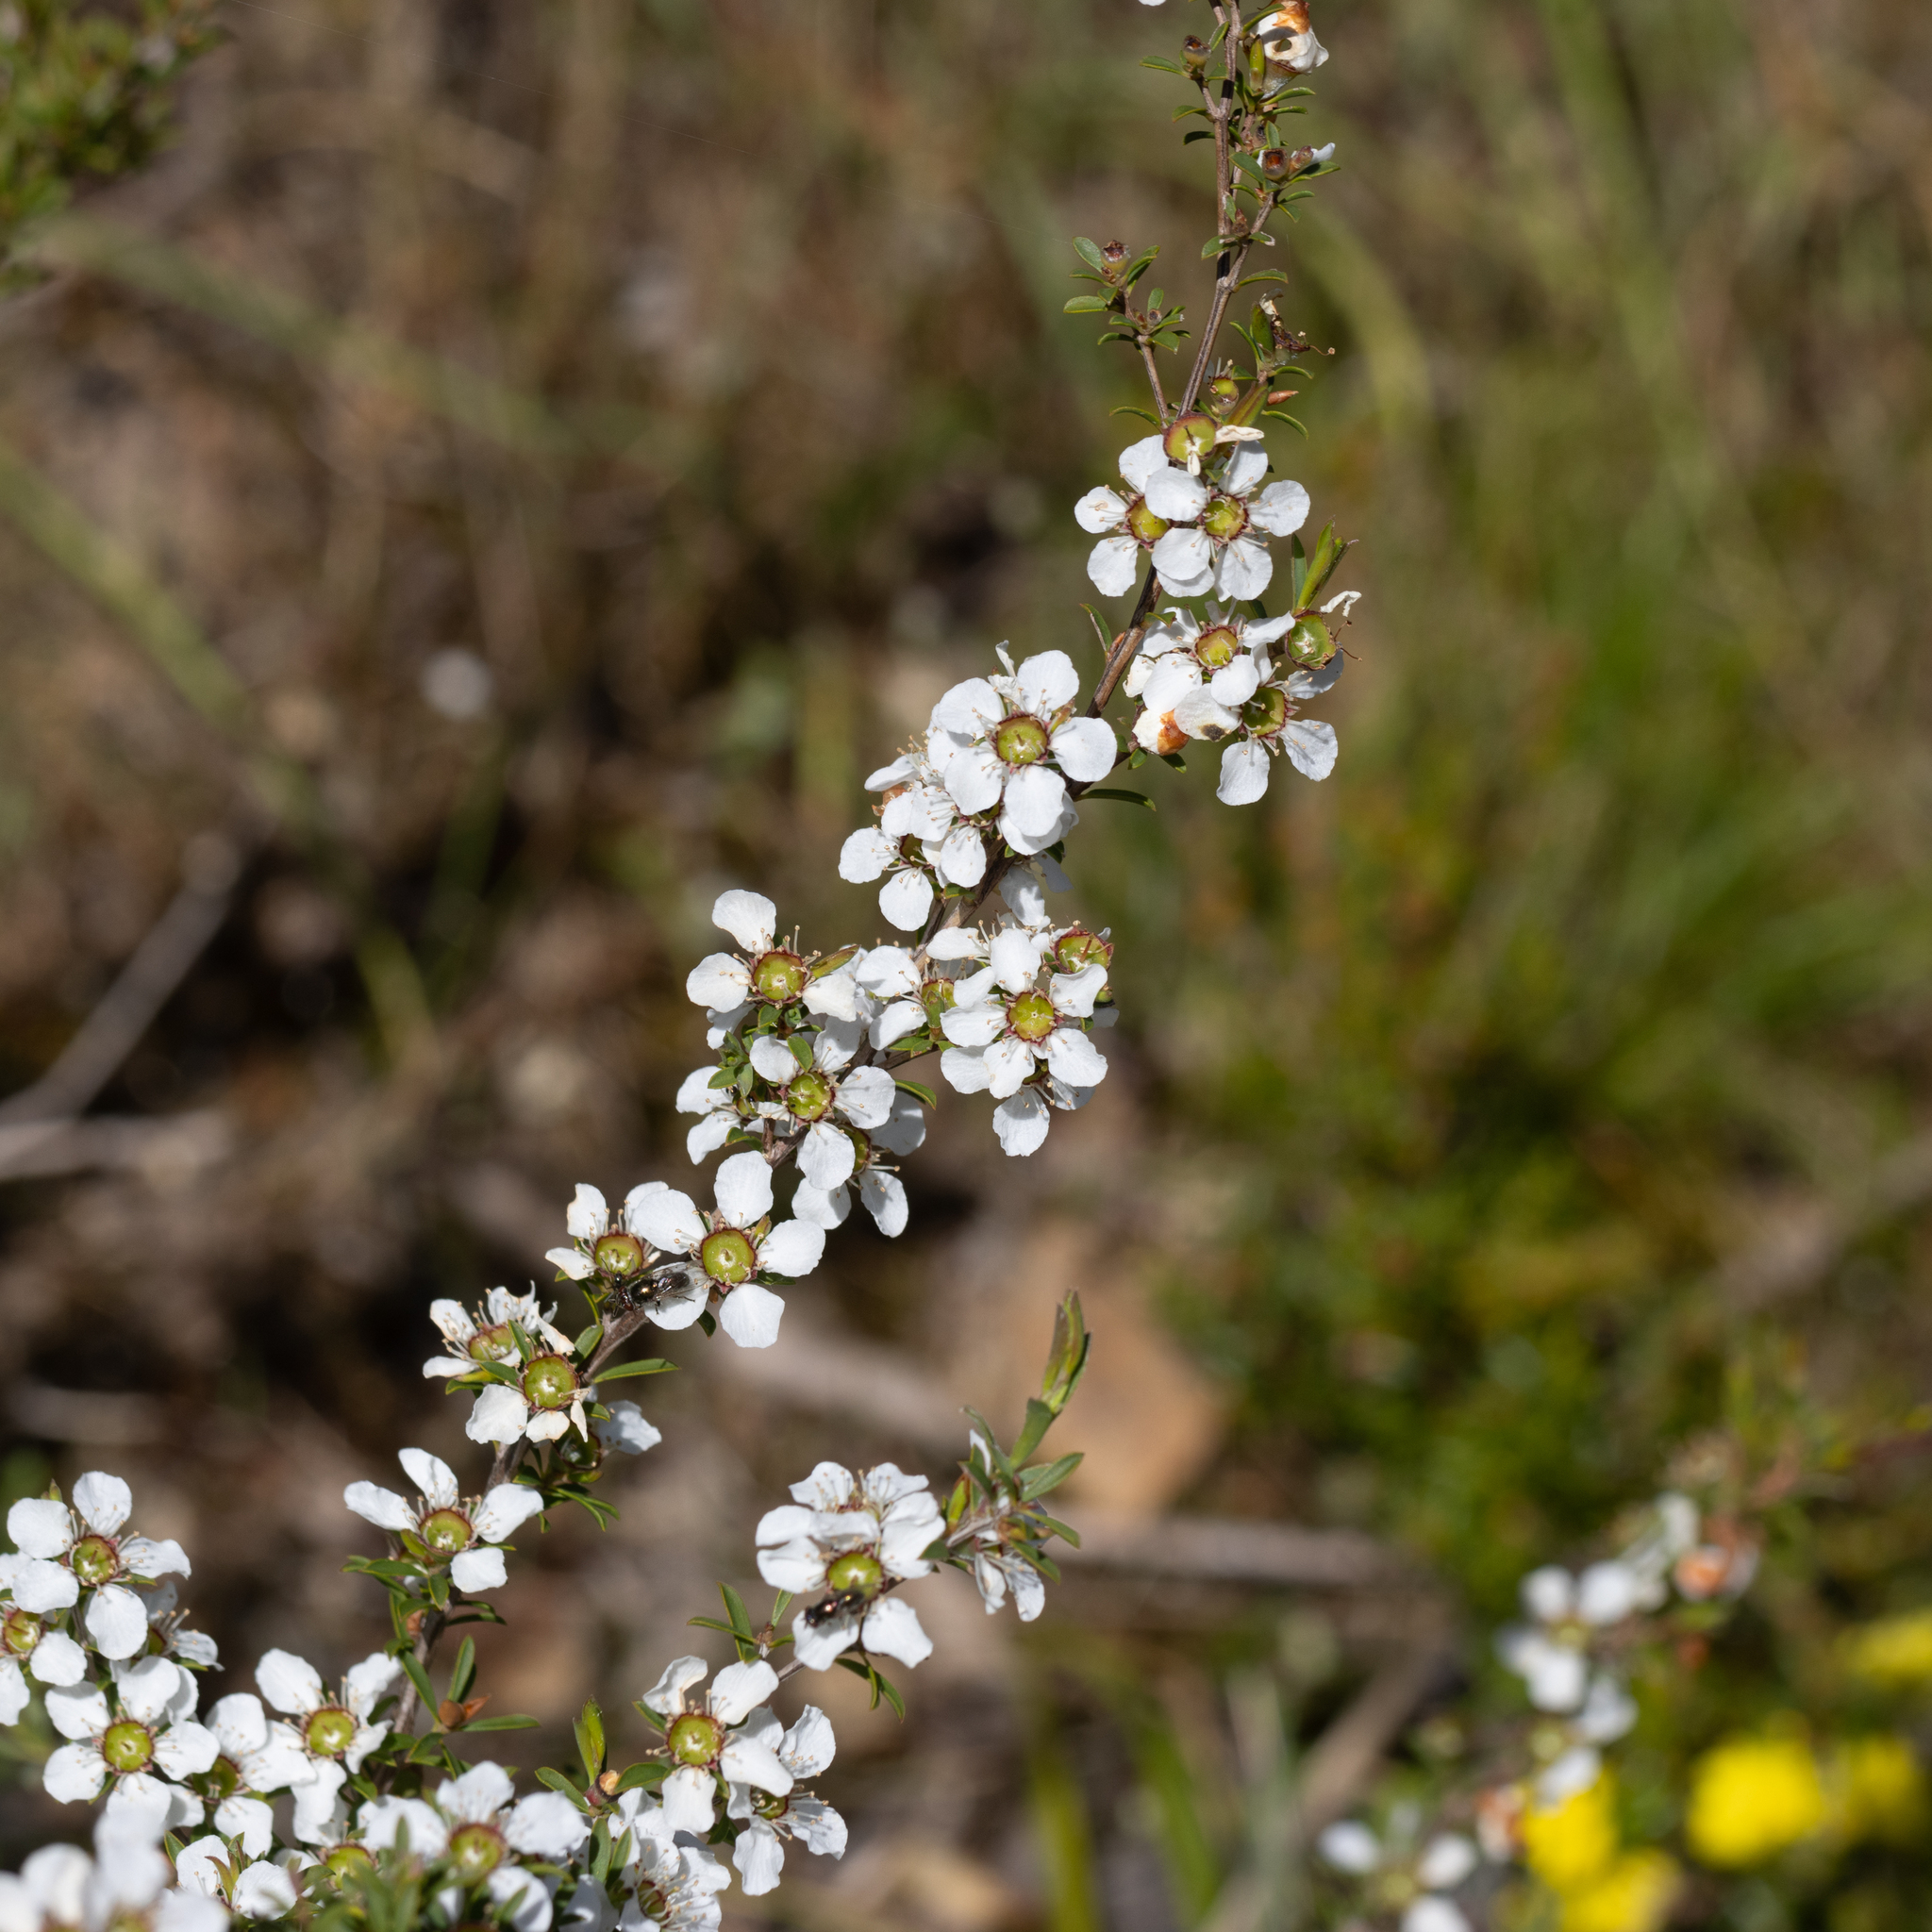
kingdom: Plantae
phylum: Tracheophyta
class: Magnoliopsida
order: Myrtales
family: Myrtaceae
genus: Leptospermum
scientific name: Leptospermum myrsinoides
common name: Heath teatree
